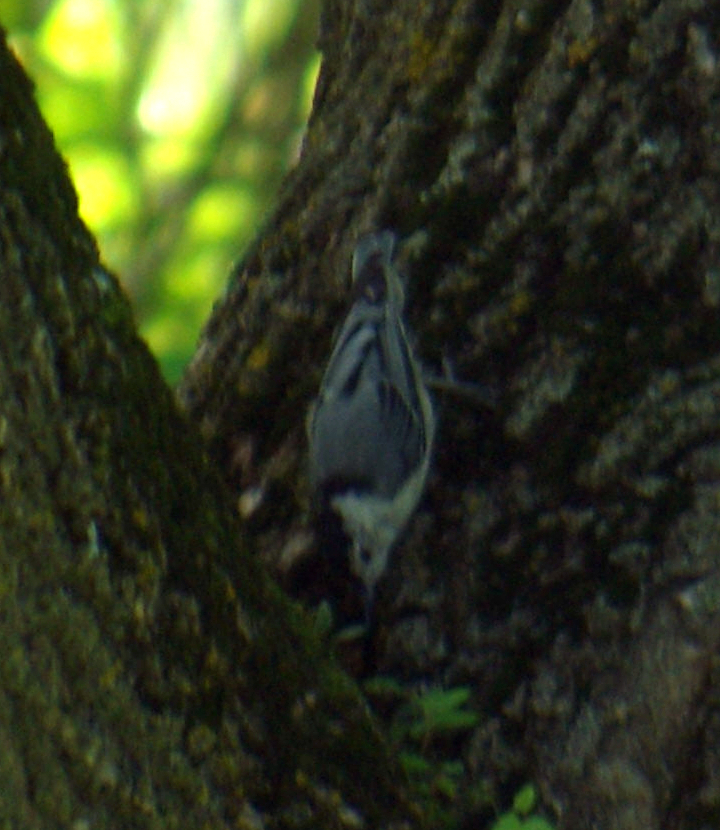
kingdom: Animalia
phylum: Chordata
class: Aves
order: Passeriformes
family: Sittidae
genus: Sitta
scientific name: Sitta carolinensis
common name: White-breasted nuthatch
